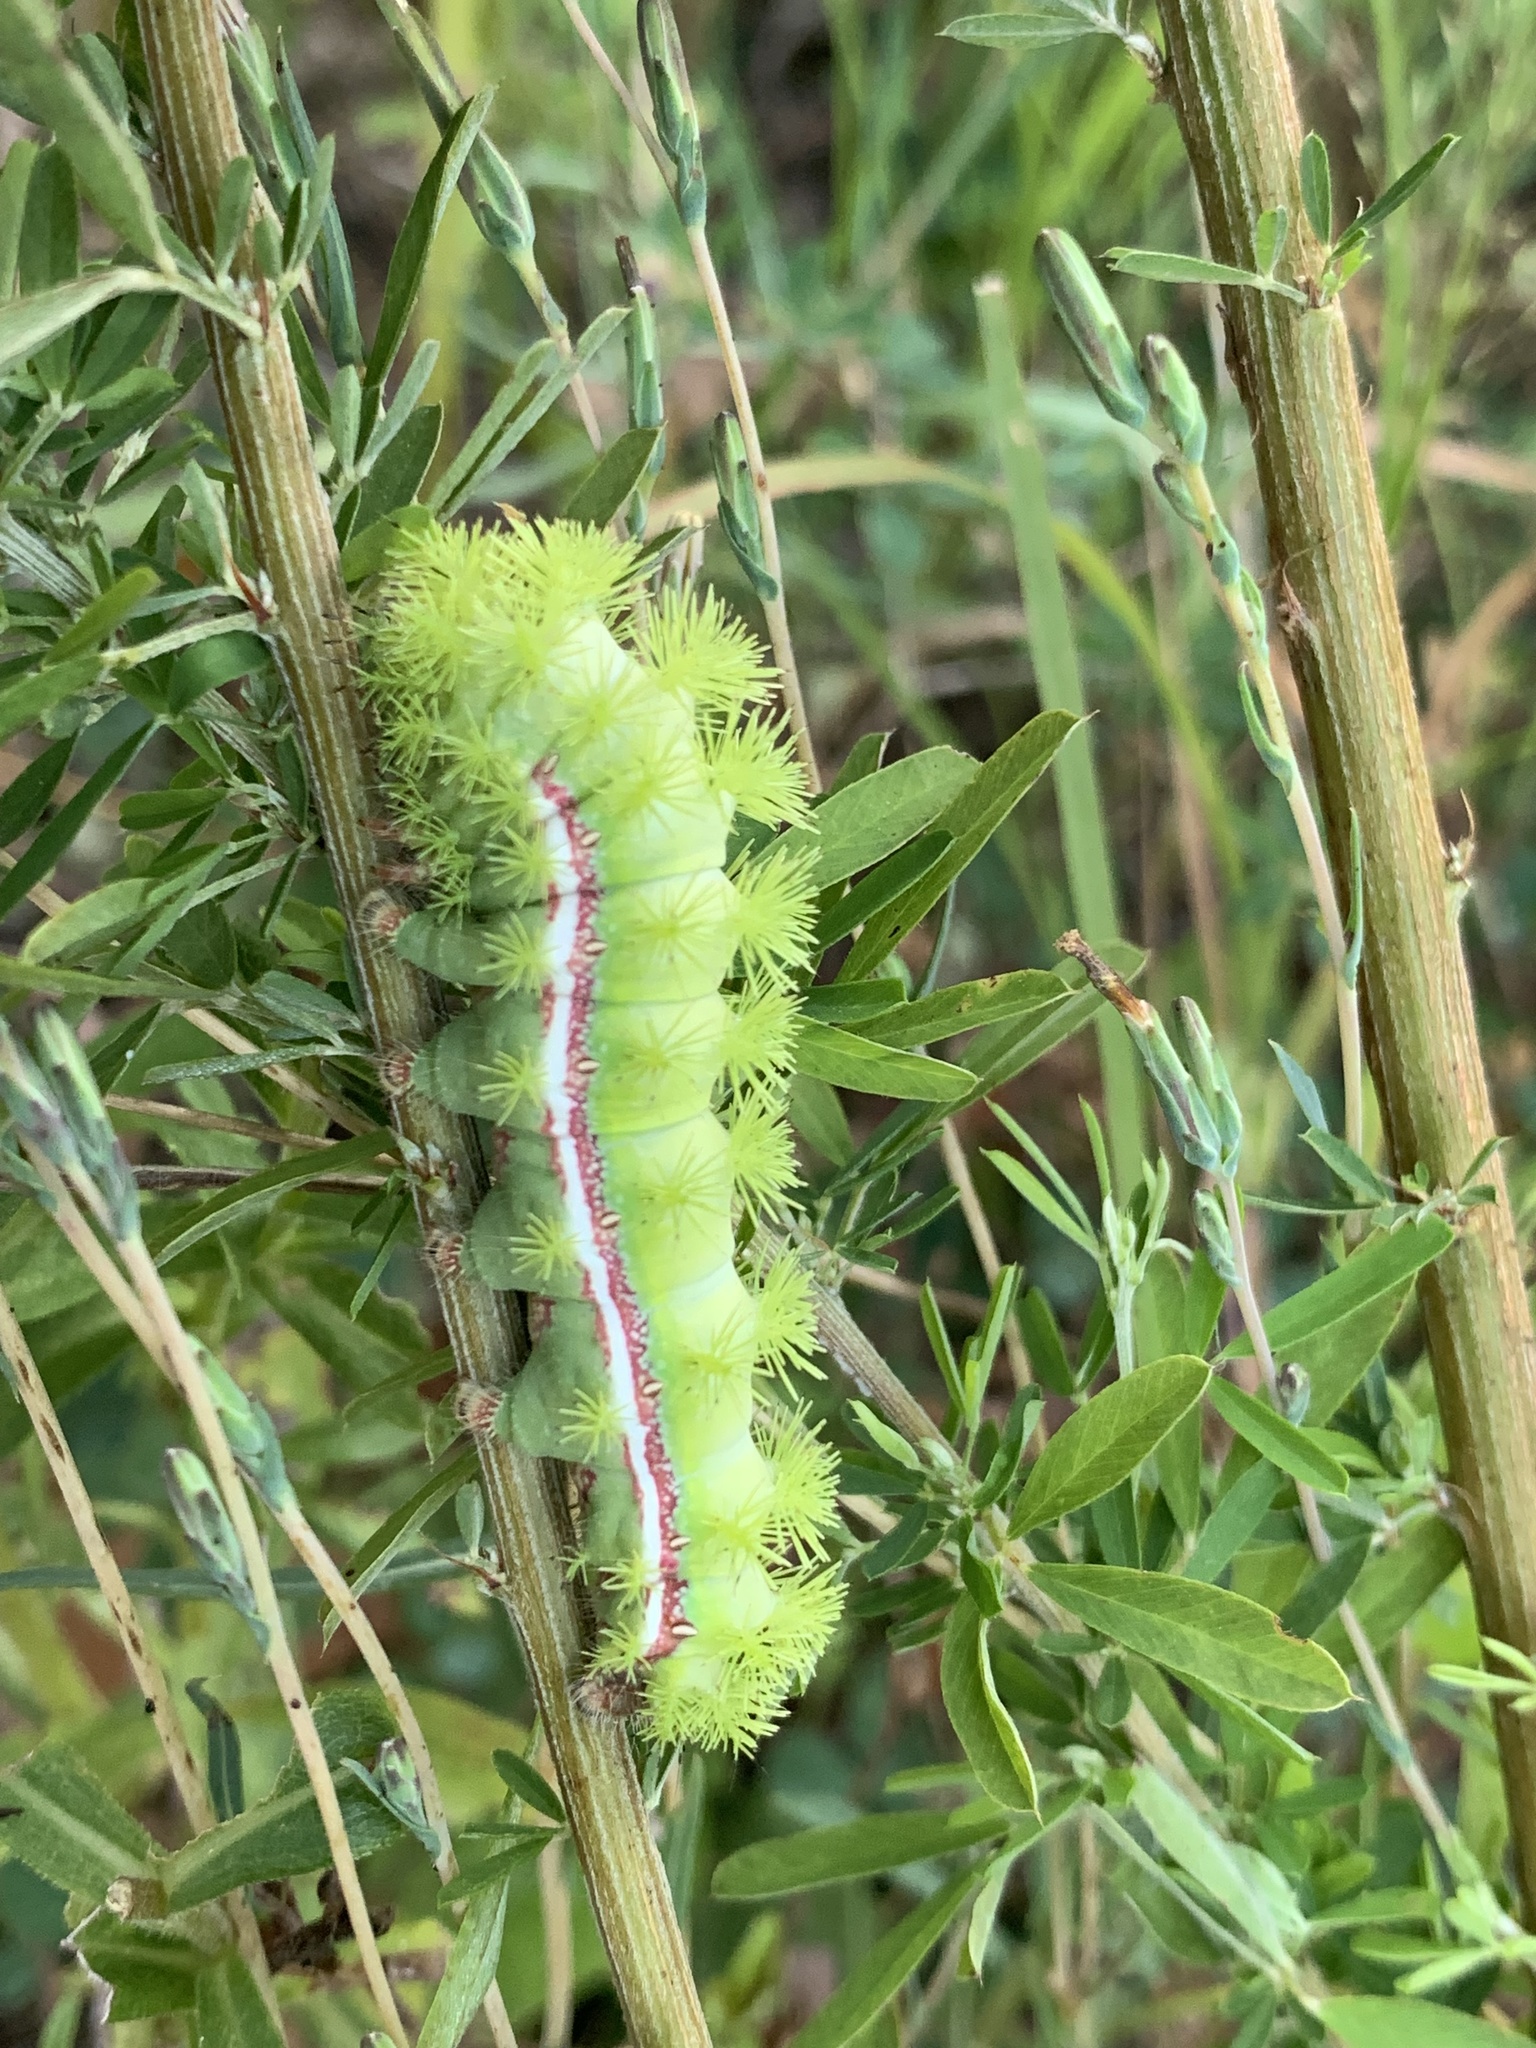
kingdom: Animalia
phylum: Arthropoda
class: Insecta
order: Lepidoptera
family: Saturniidae
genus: Automeris
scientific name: Automeris io
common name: Io moth
